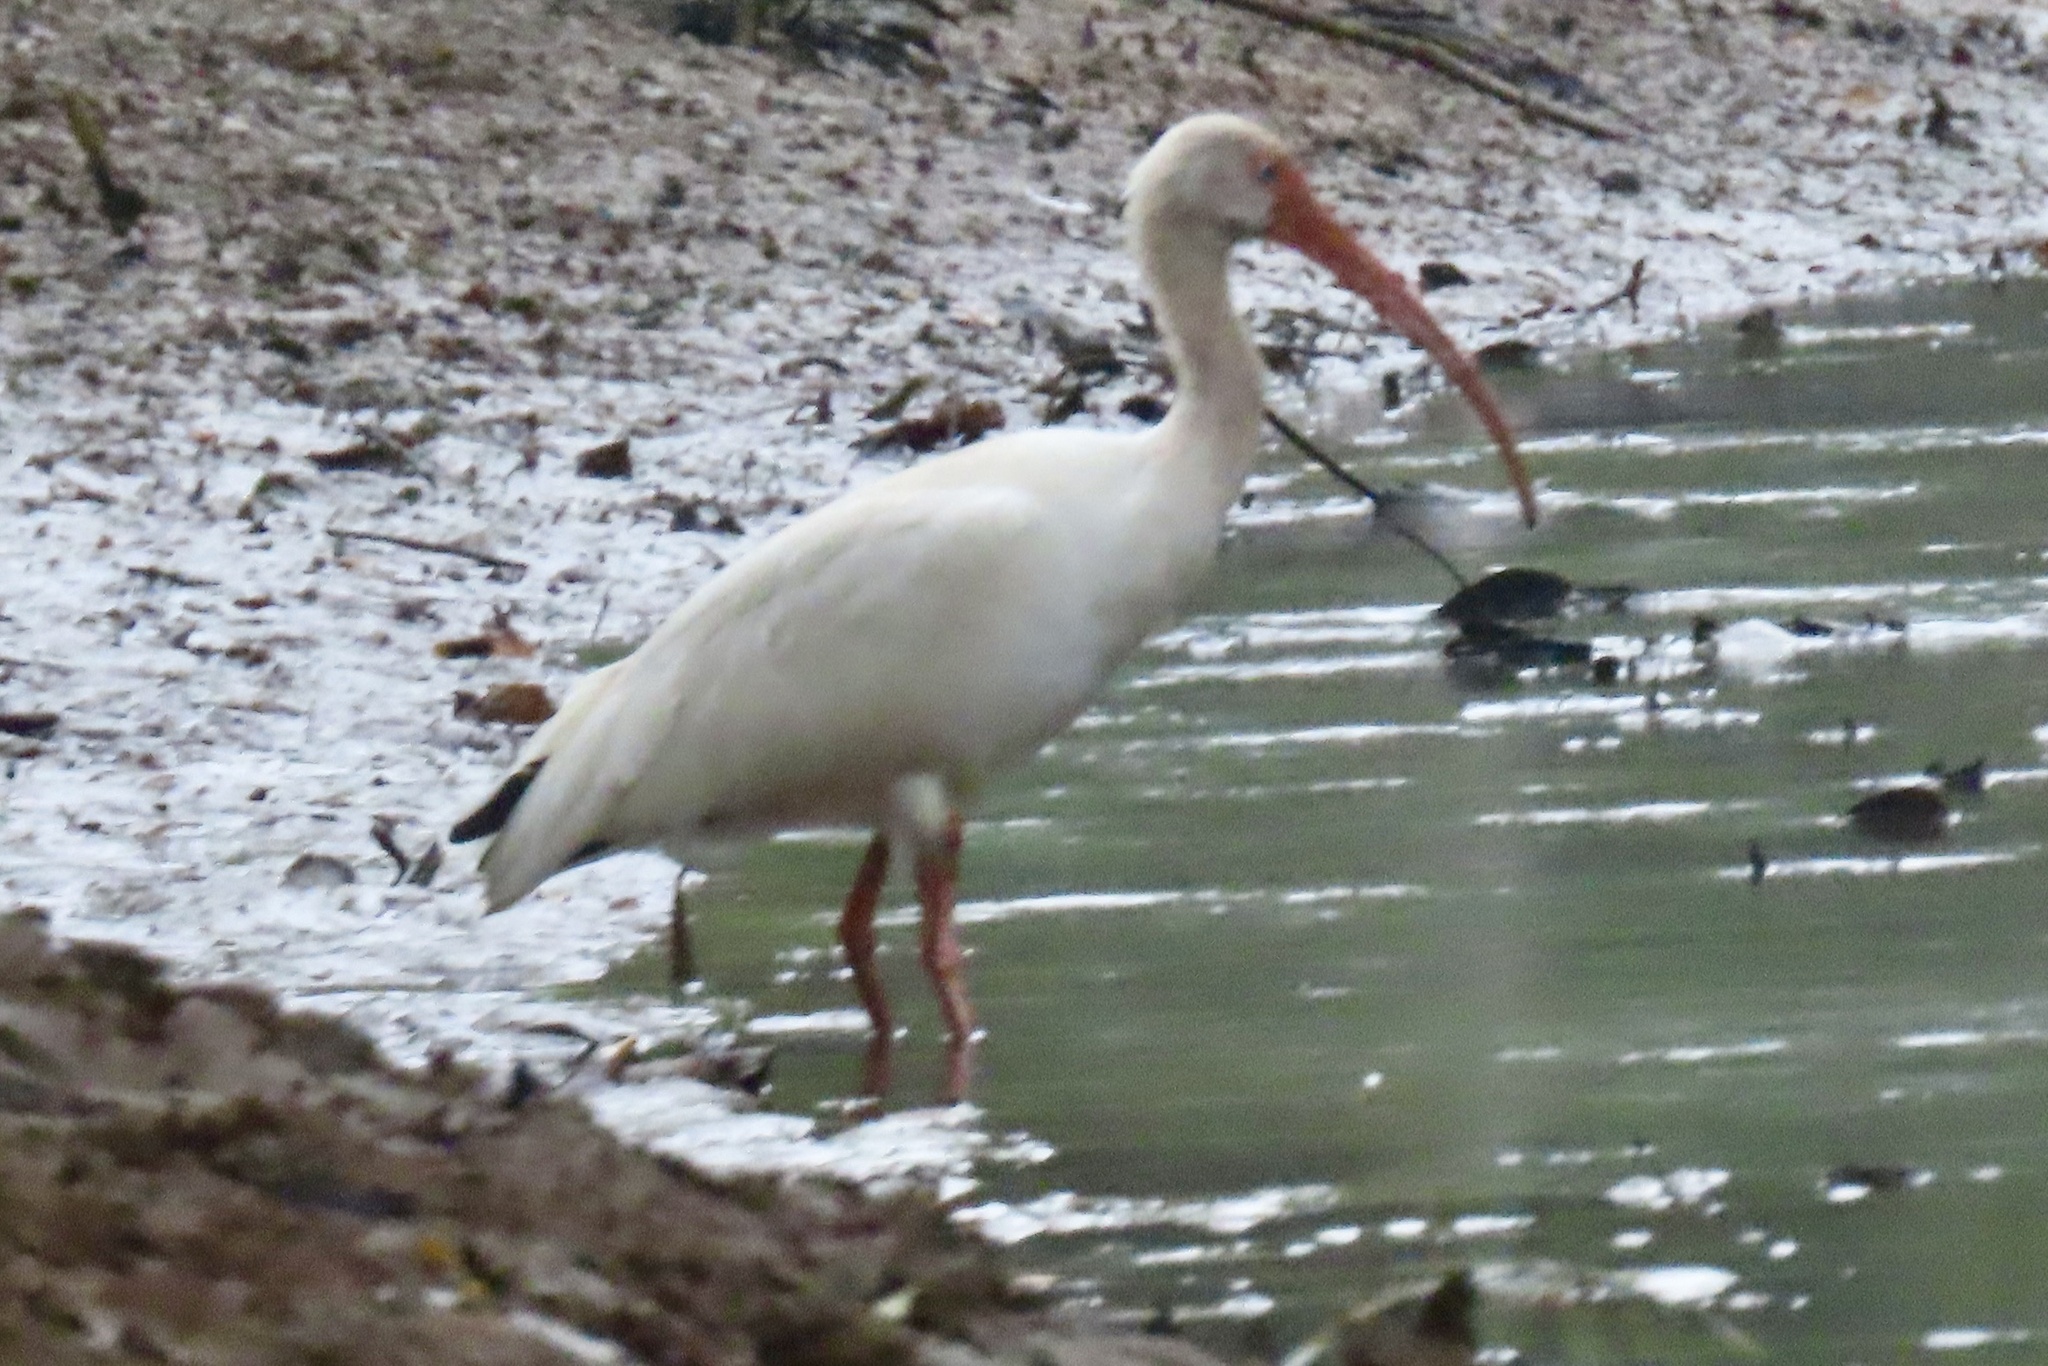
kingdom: Animalia
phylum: Chordata
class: Aves
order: Pelecaniformes
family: Threskiornithidae
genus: Eudocimus
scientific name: Eudocimus albus
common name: White ibis
